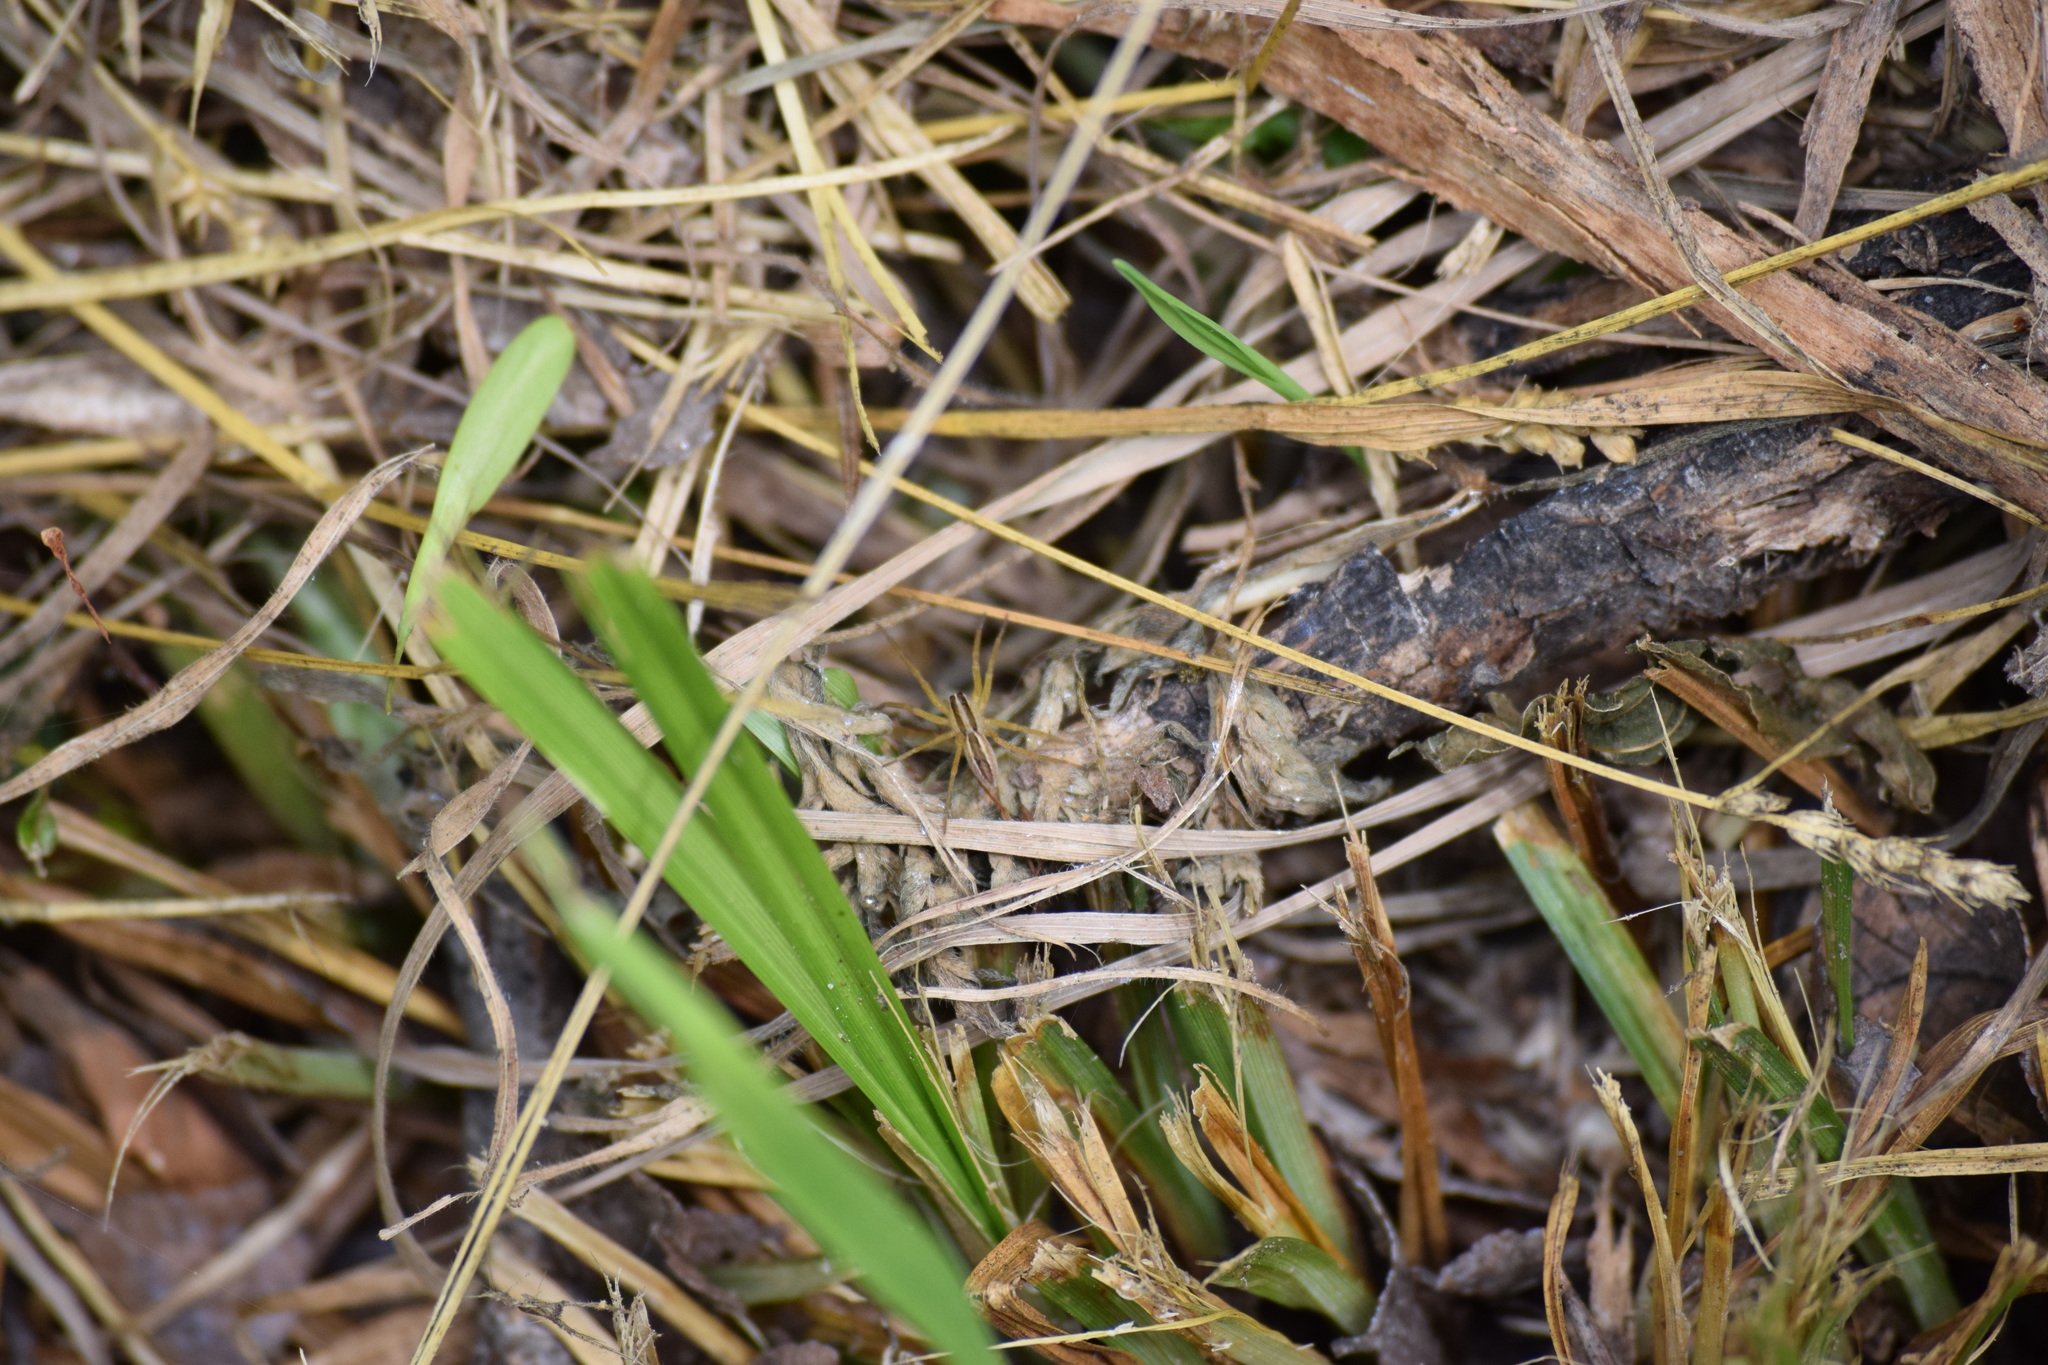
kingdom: Animalia
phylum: Arthropoda
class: Arachnida
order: Araneae
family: Lycosidae
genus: Rabidosa
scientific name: Rabidosa rabida
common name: Rabid wolf spider
